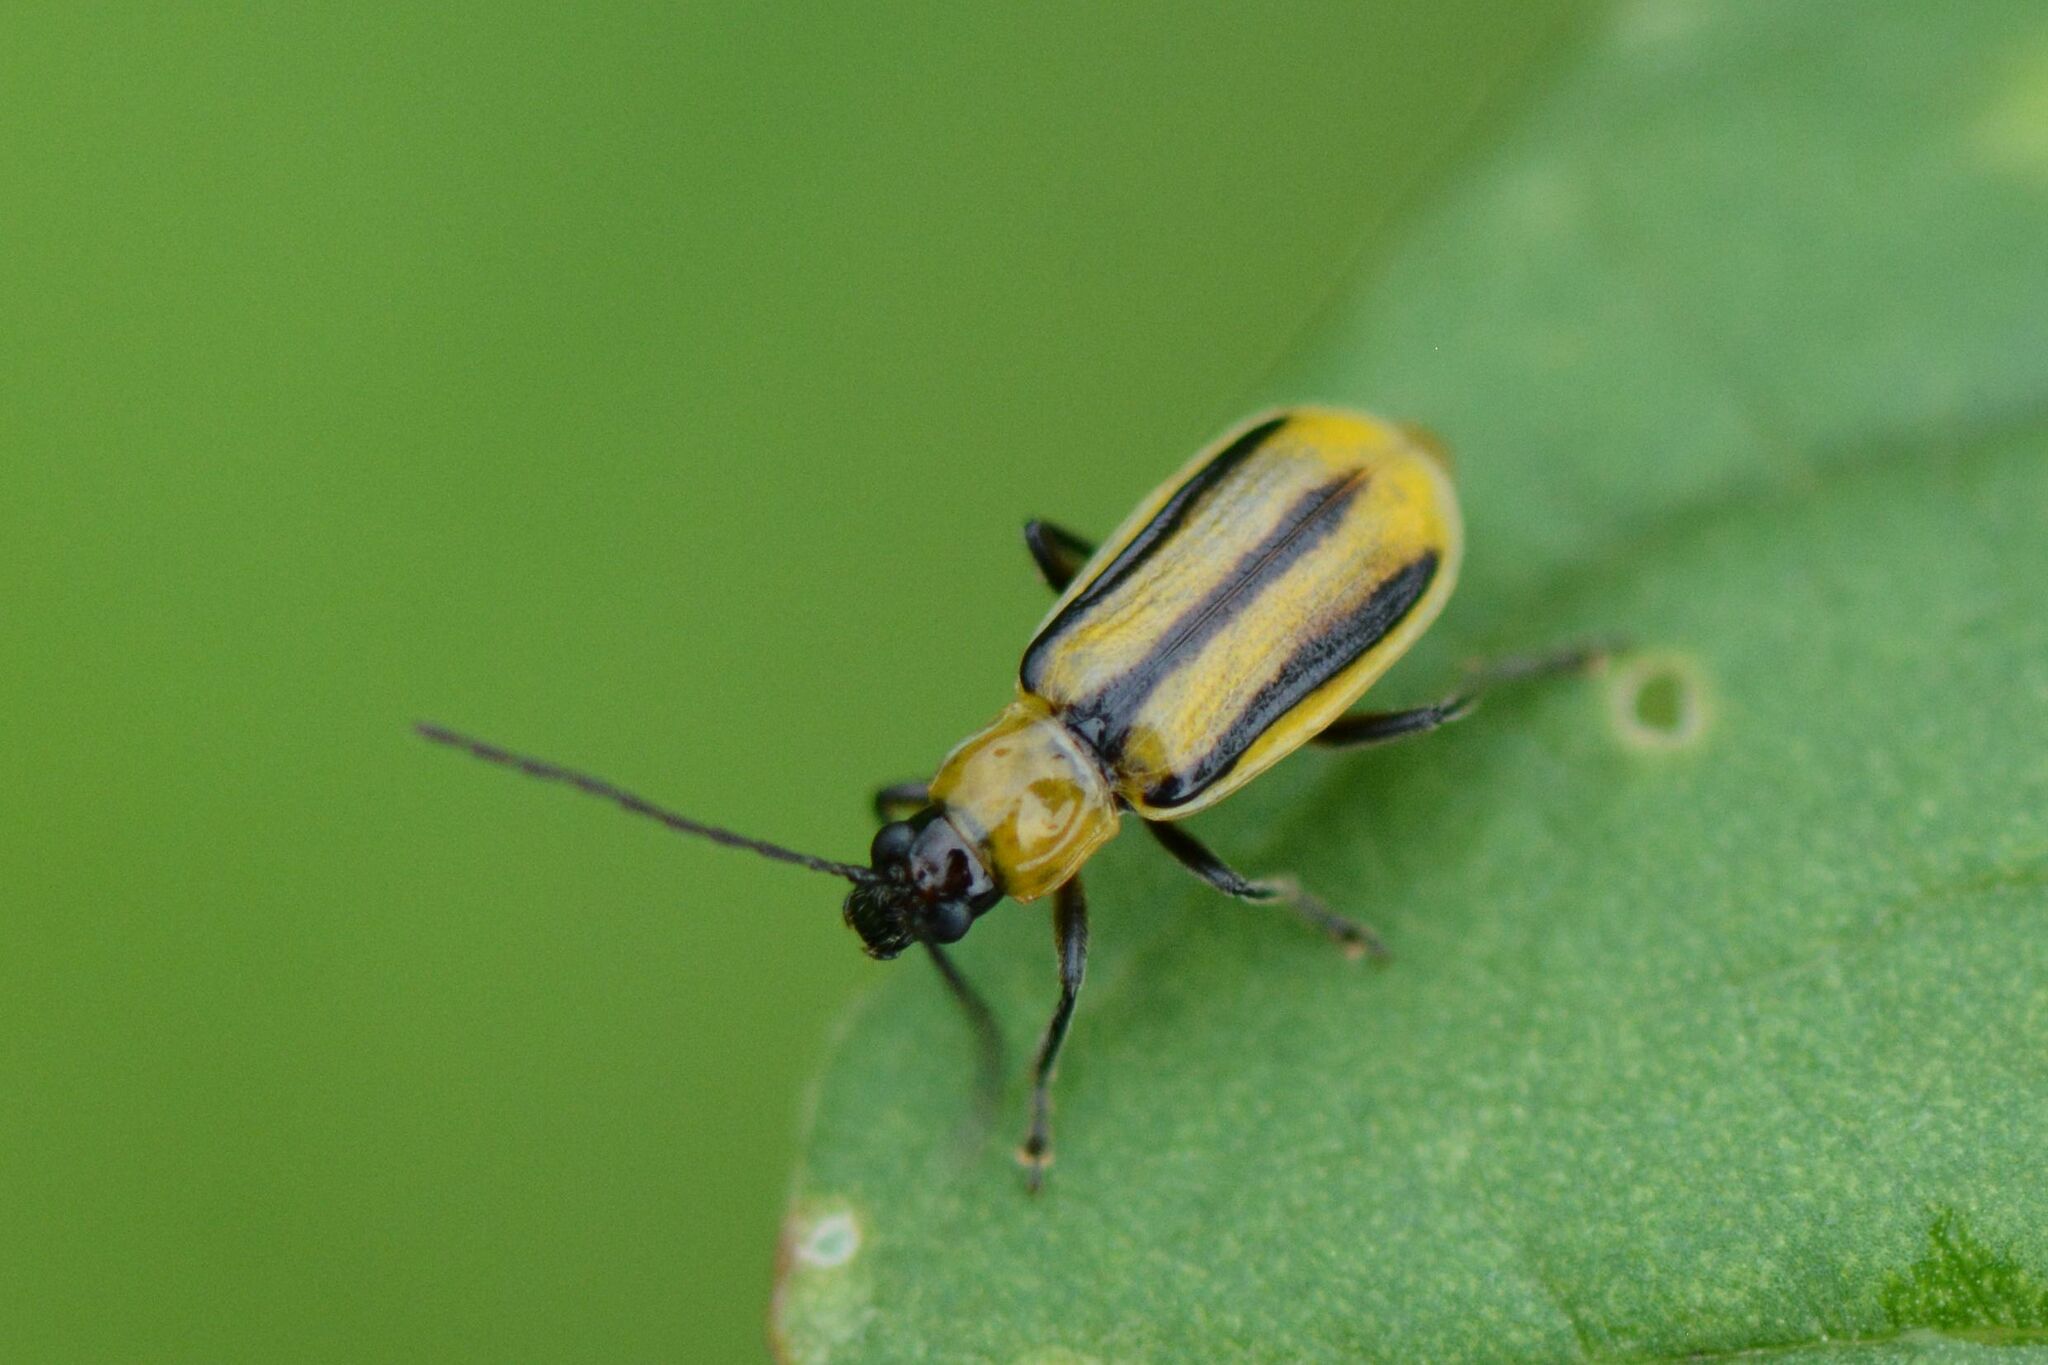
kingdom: Animalia
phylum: Arthropoda
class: Insecta
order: Coleoptera
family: Chrysomelidae
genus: Diabrotica
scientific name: Diabrotica virgifera
